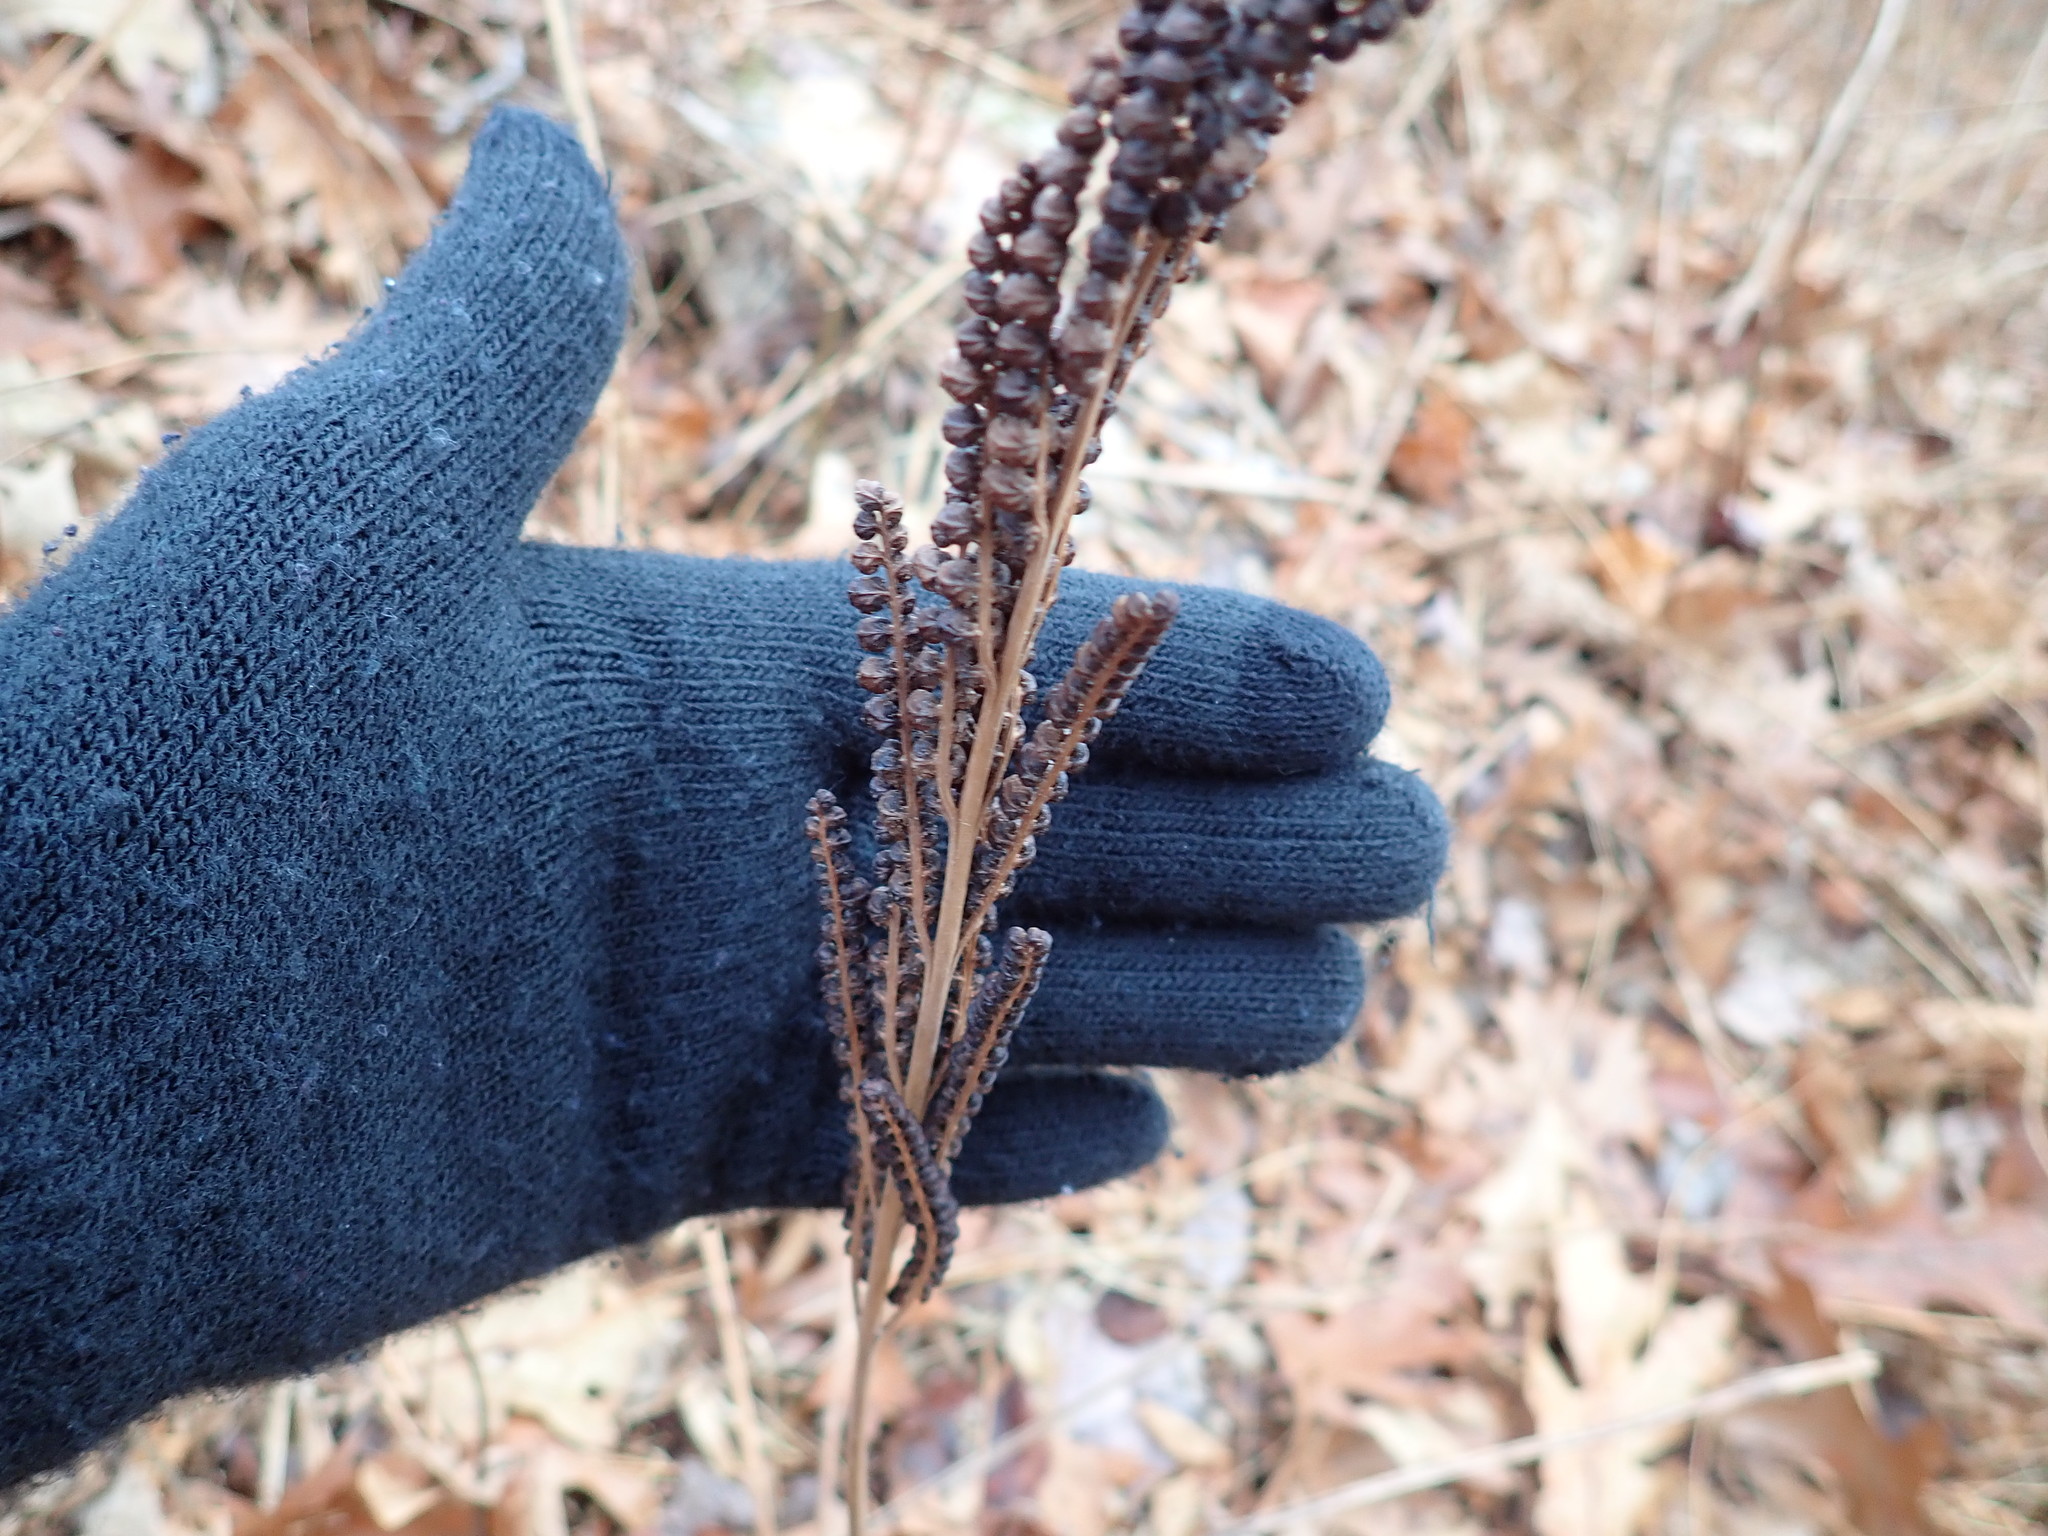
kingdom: Plantae
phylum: Tracheophyta
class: Polypodiopsida
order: Polypodiales
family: Onocleaceae
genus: Onoclea
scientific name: Onoclea sensibilis
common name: Sensitive fern
